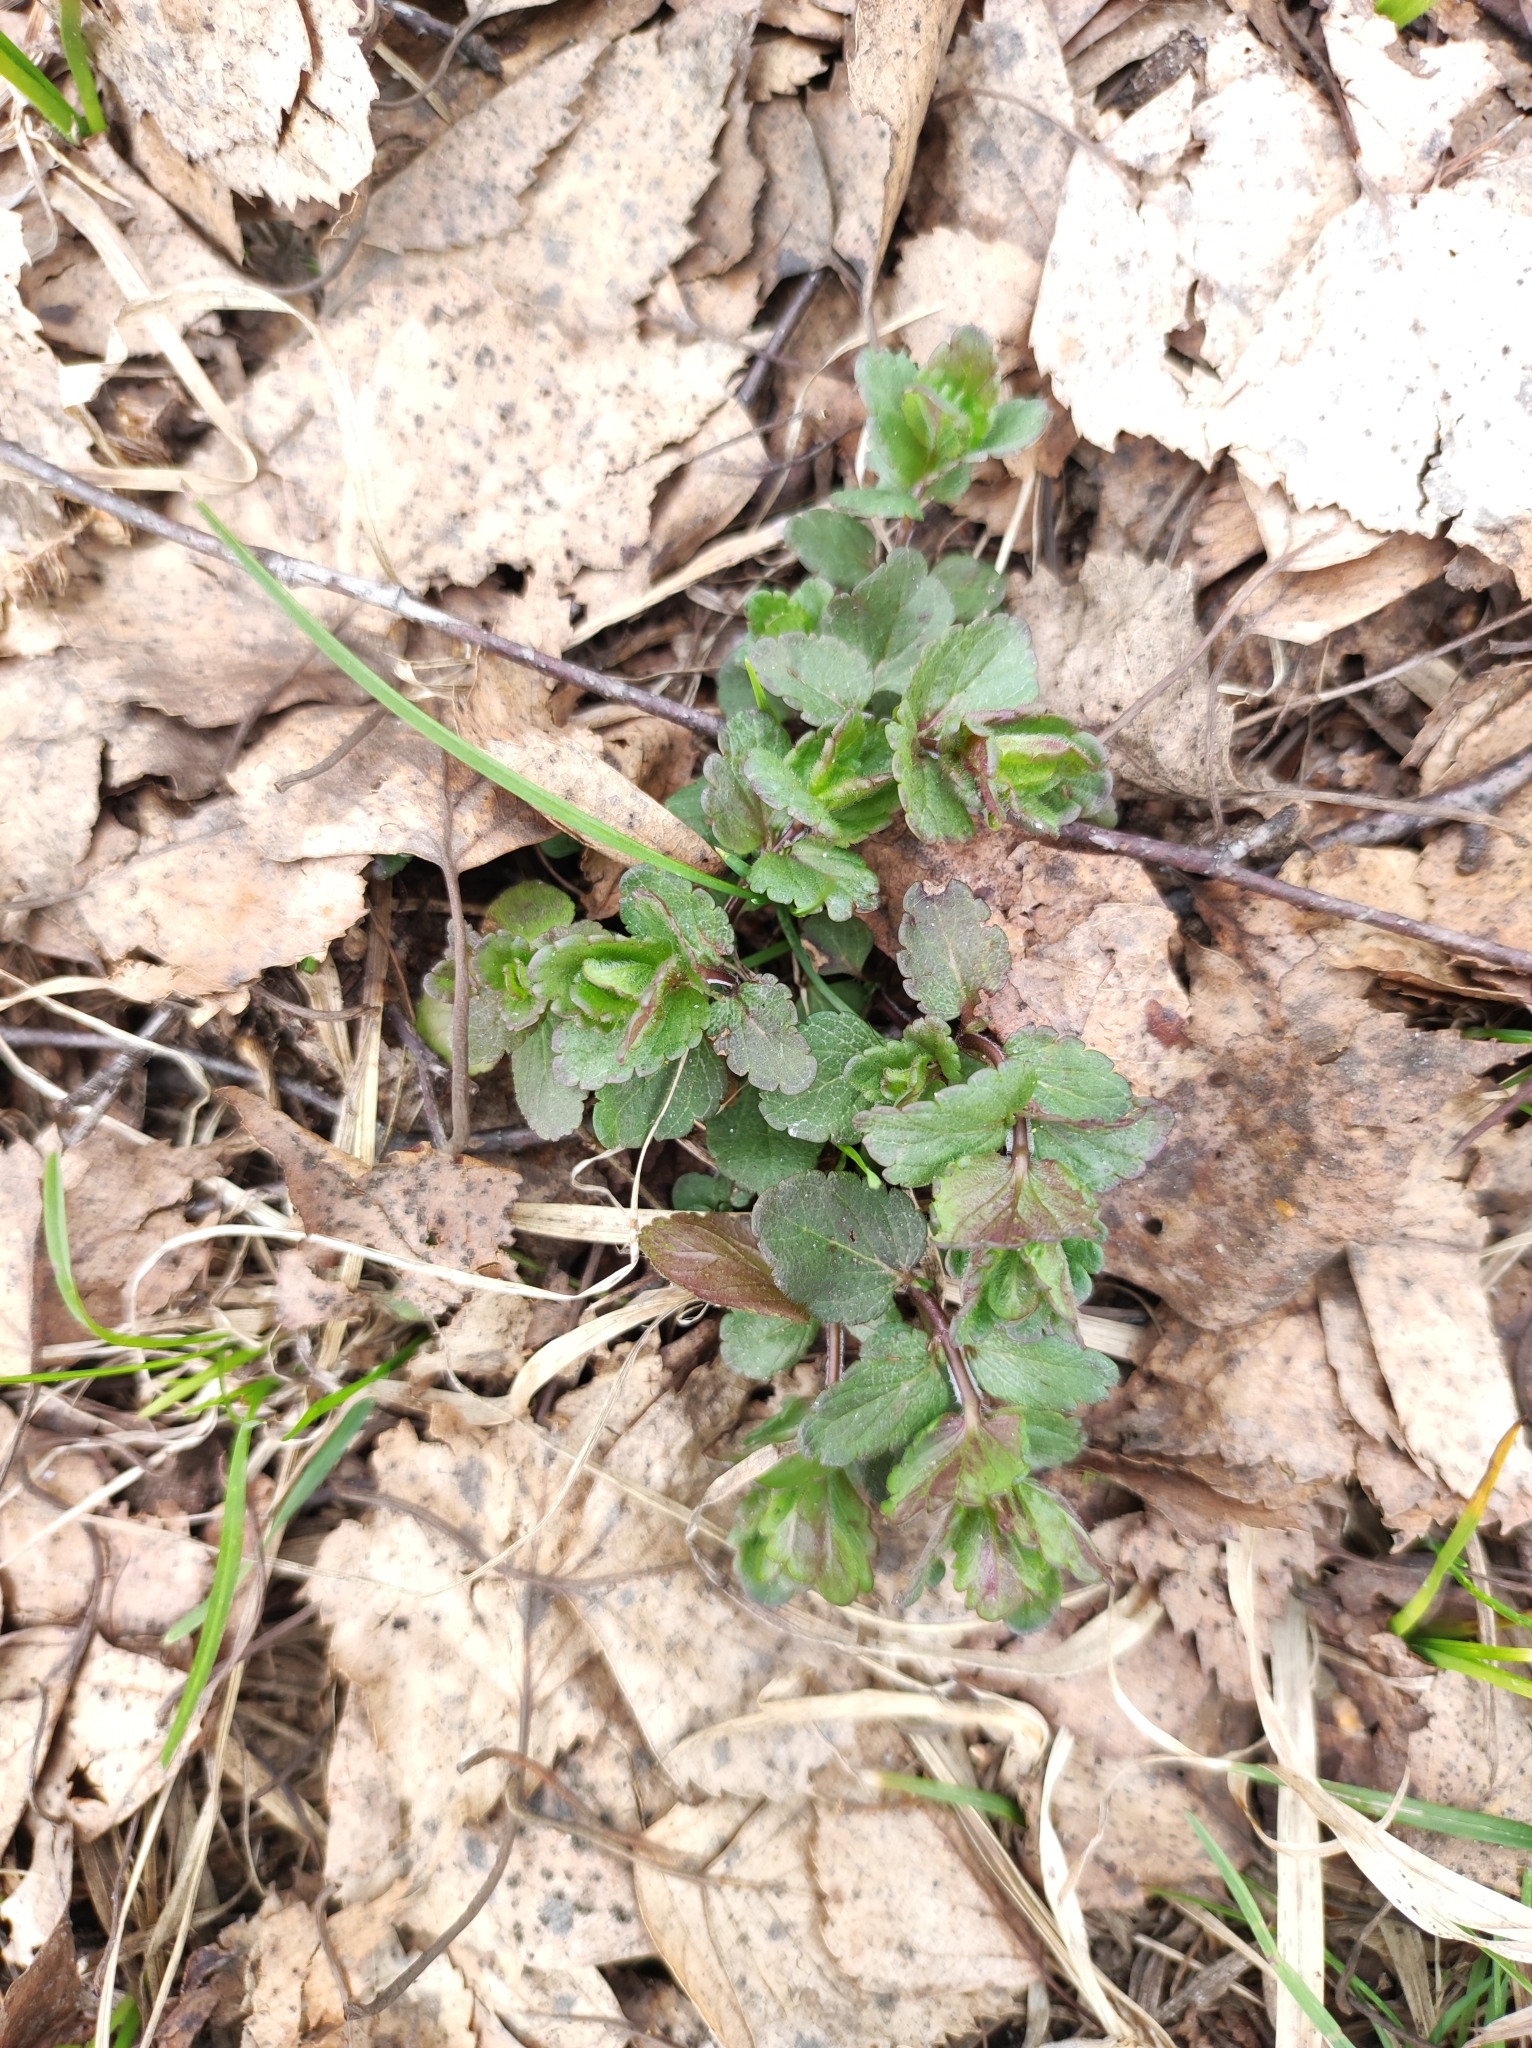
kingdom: Plantae
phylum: Tracheophyta
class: Magnoliopsida
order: Lamiales
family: Plantaginaceae
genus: Veronica
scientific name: Veronica chamaedrys
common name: Germander speedwell
